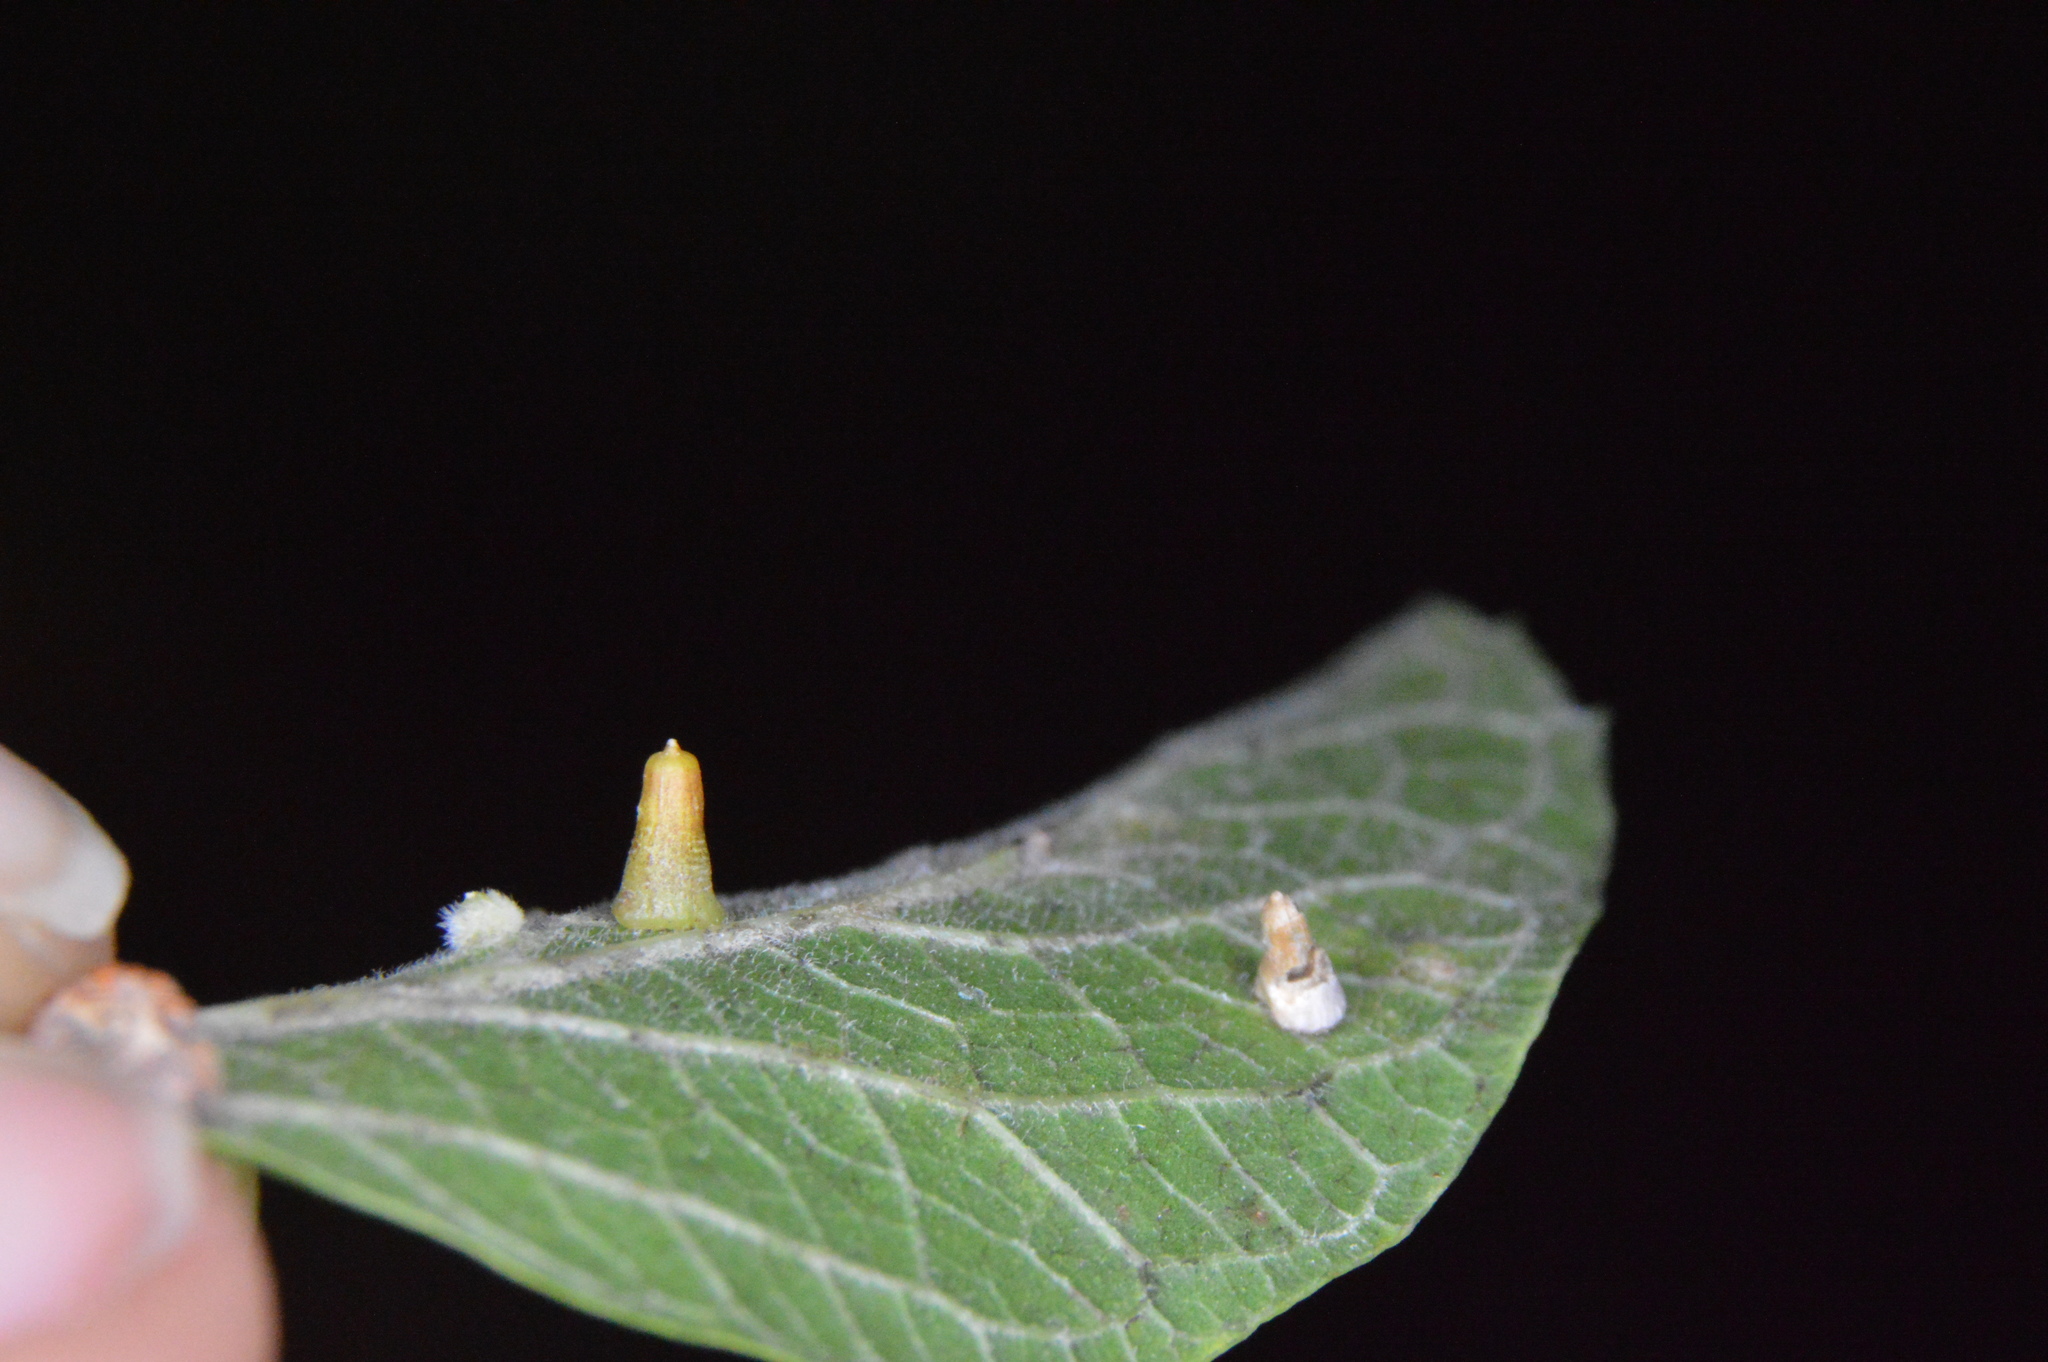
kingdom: Animalia
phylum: Arthropoda
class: Insecta
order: Diptera
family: Cecidomyiidae
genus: Celticecis
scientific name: Celticecis aciculata
